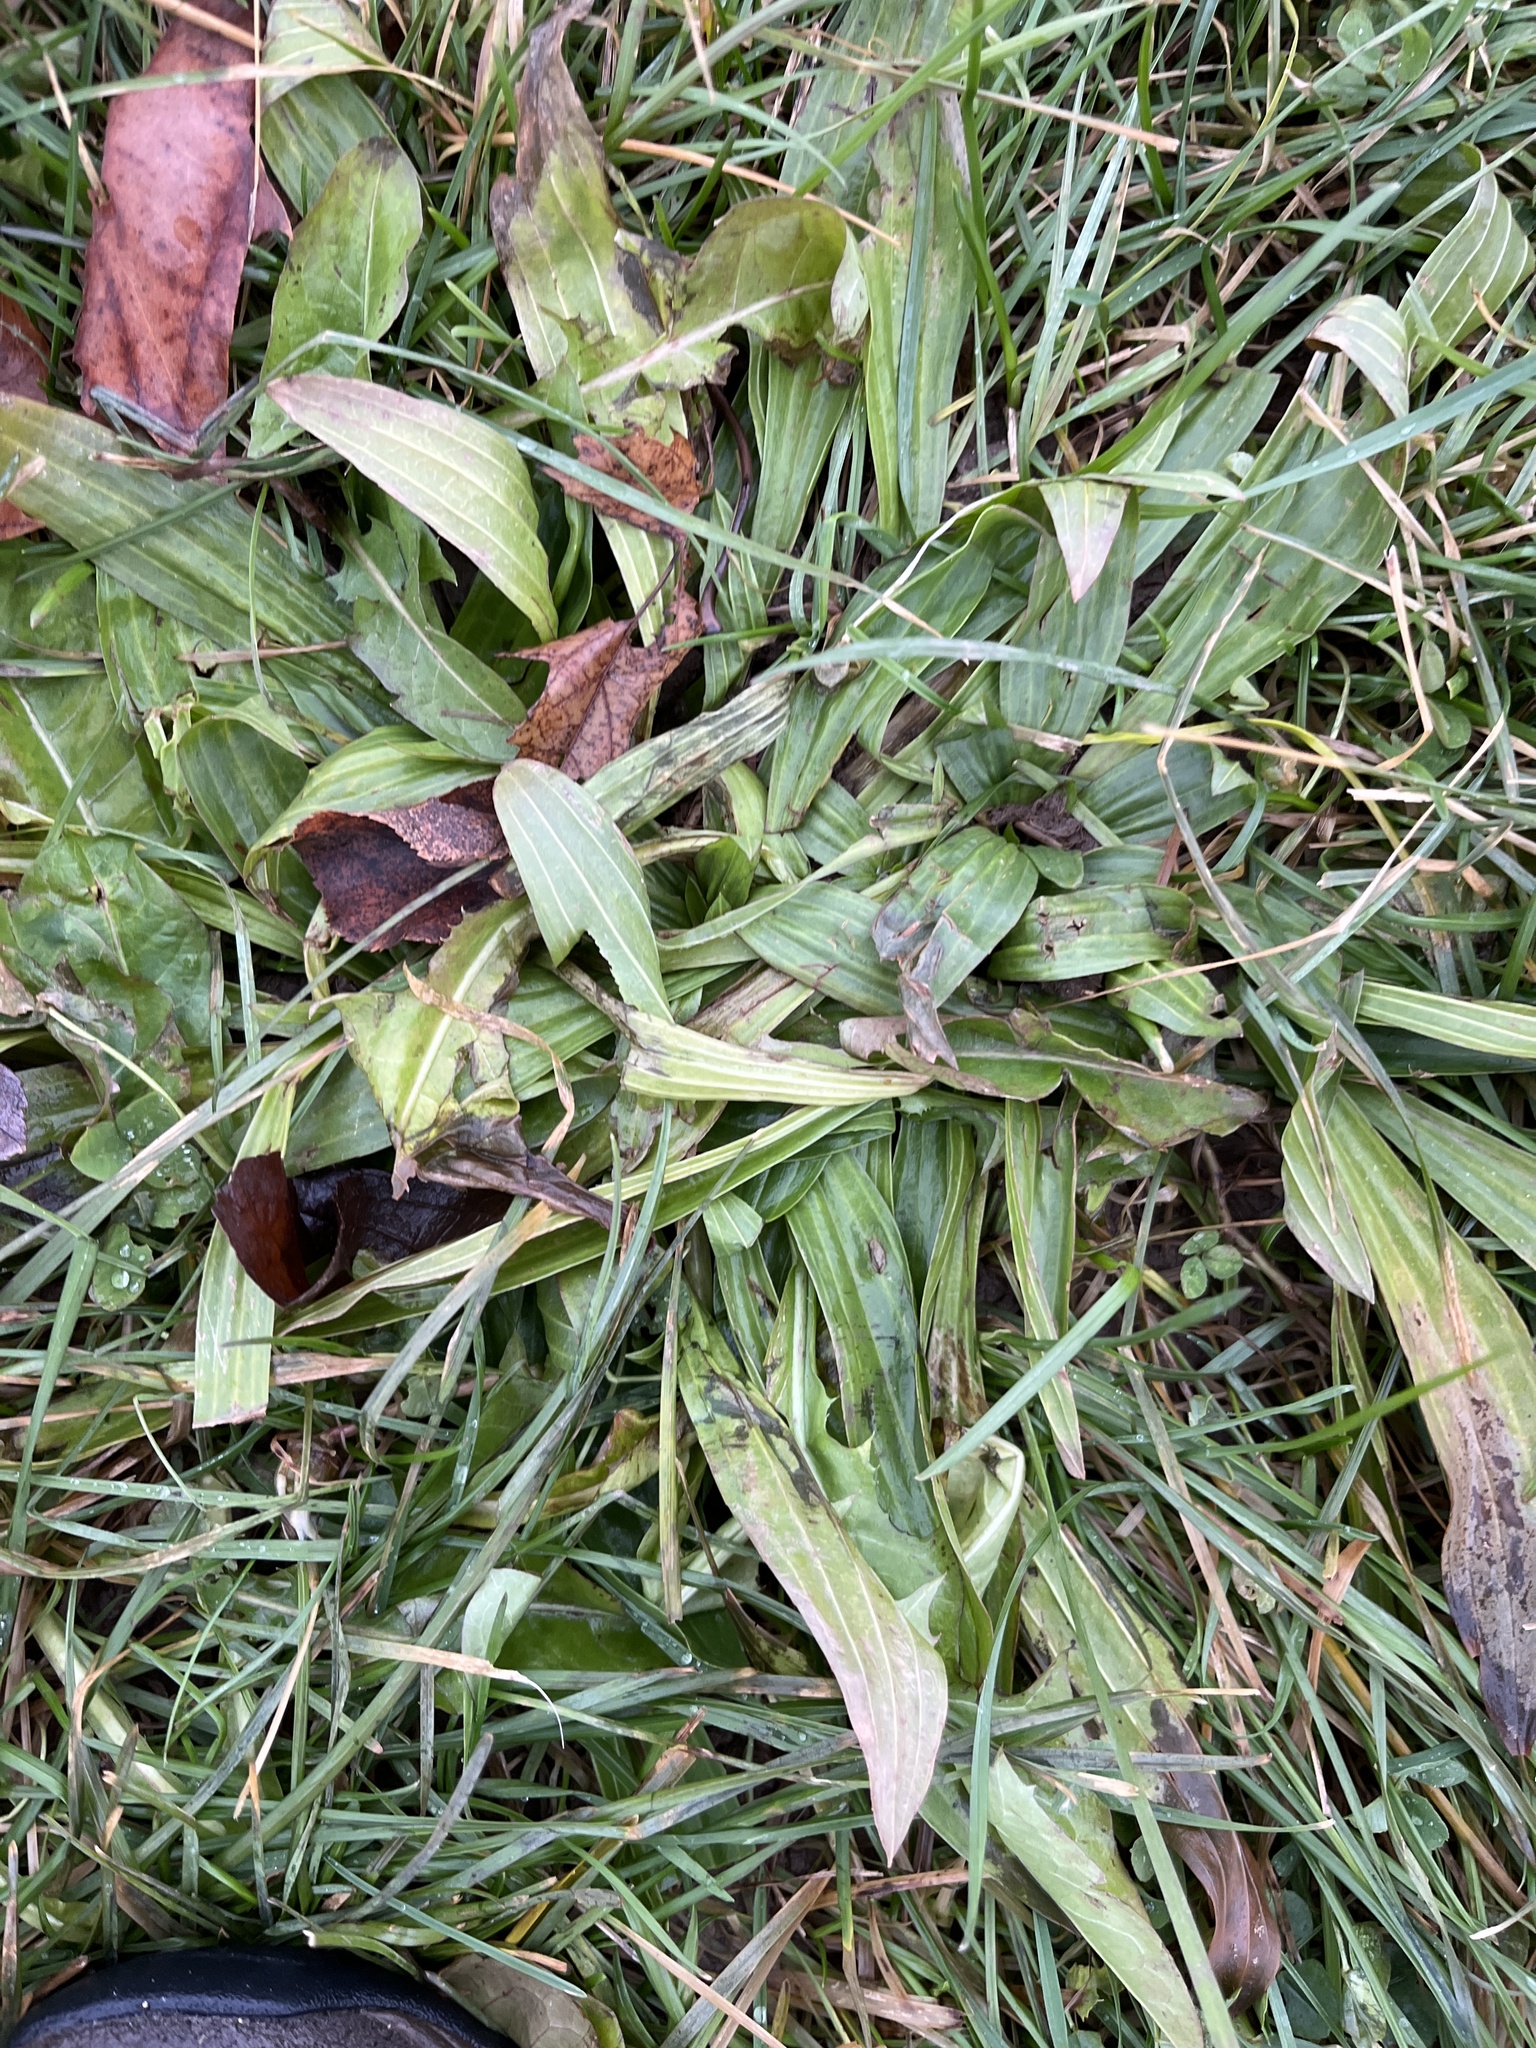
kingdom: Plantae
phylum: Tracheophyta
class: Magnoliopsida
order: Lamiales
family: Plantaginaceae
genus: Plantago
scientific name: Plantago lanceolata
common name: Ribwort plantain
